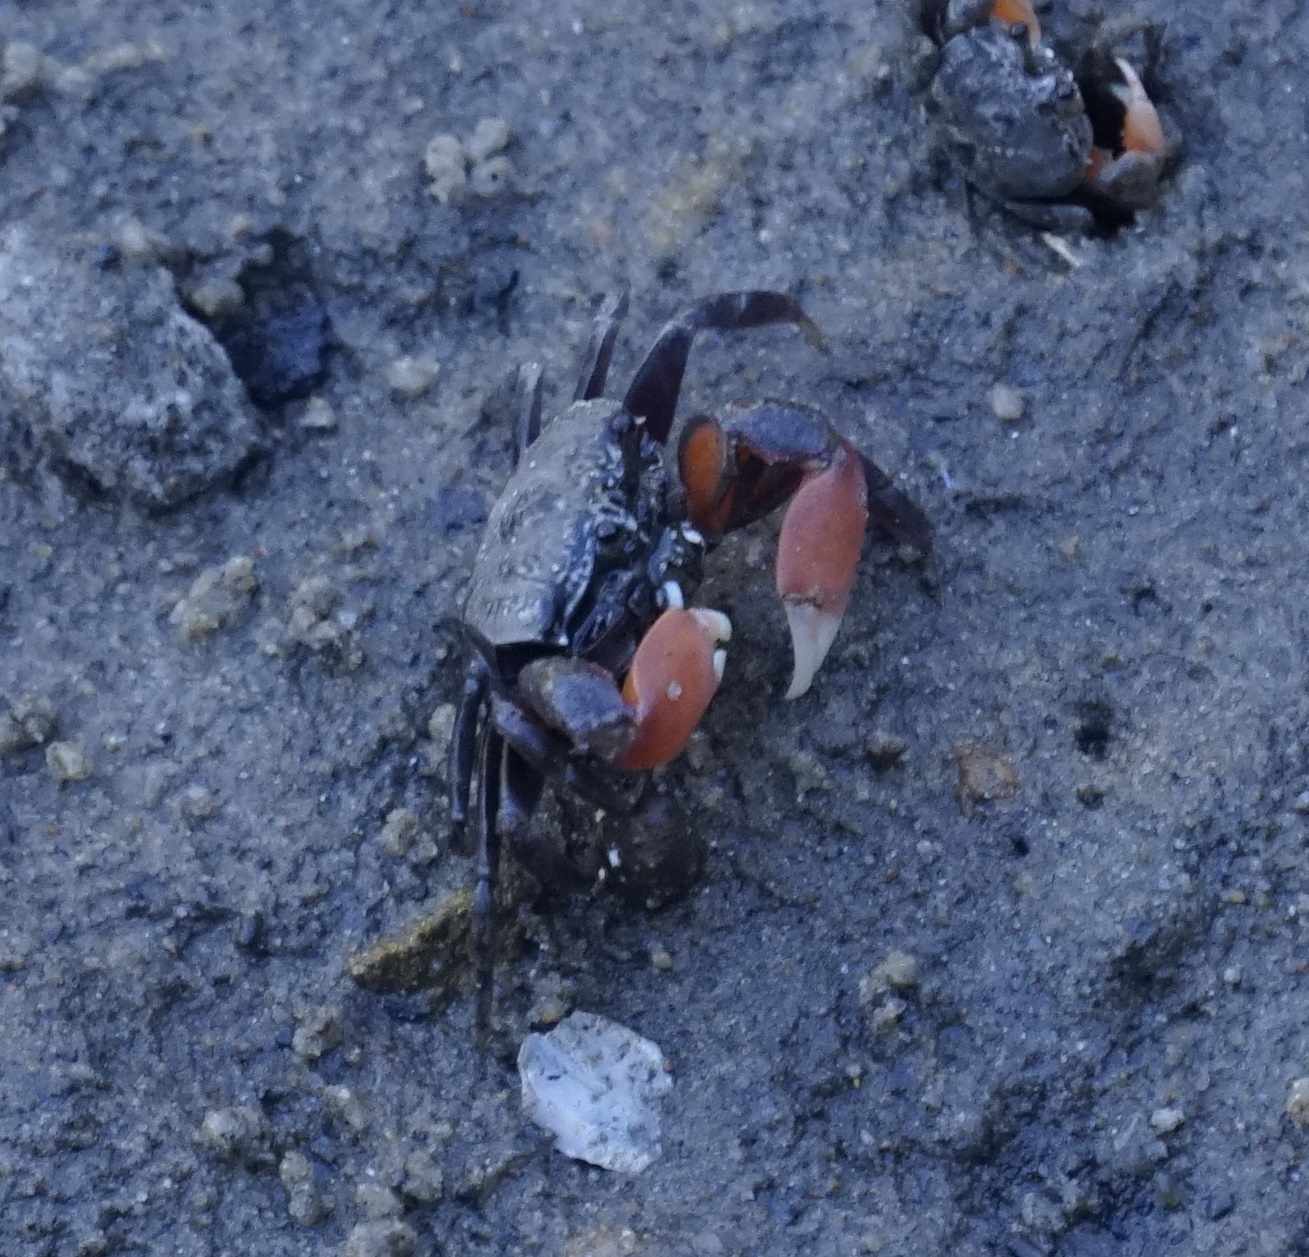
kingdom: Animalia
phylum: Arthropoda
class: Malacostraca
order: Decapoda
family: Heloeciidae
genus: Heloecius
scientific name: Heloecius cordiformis
